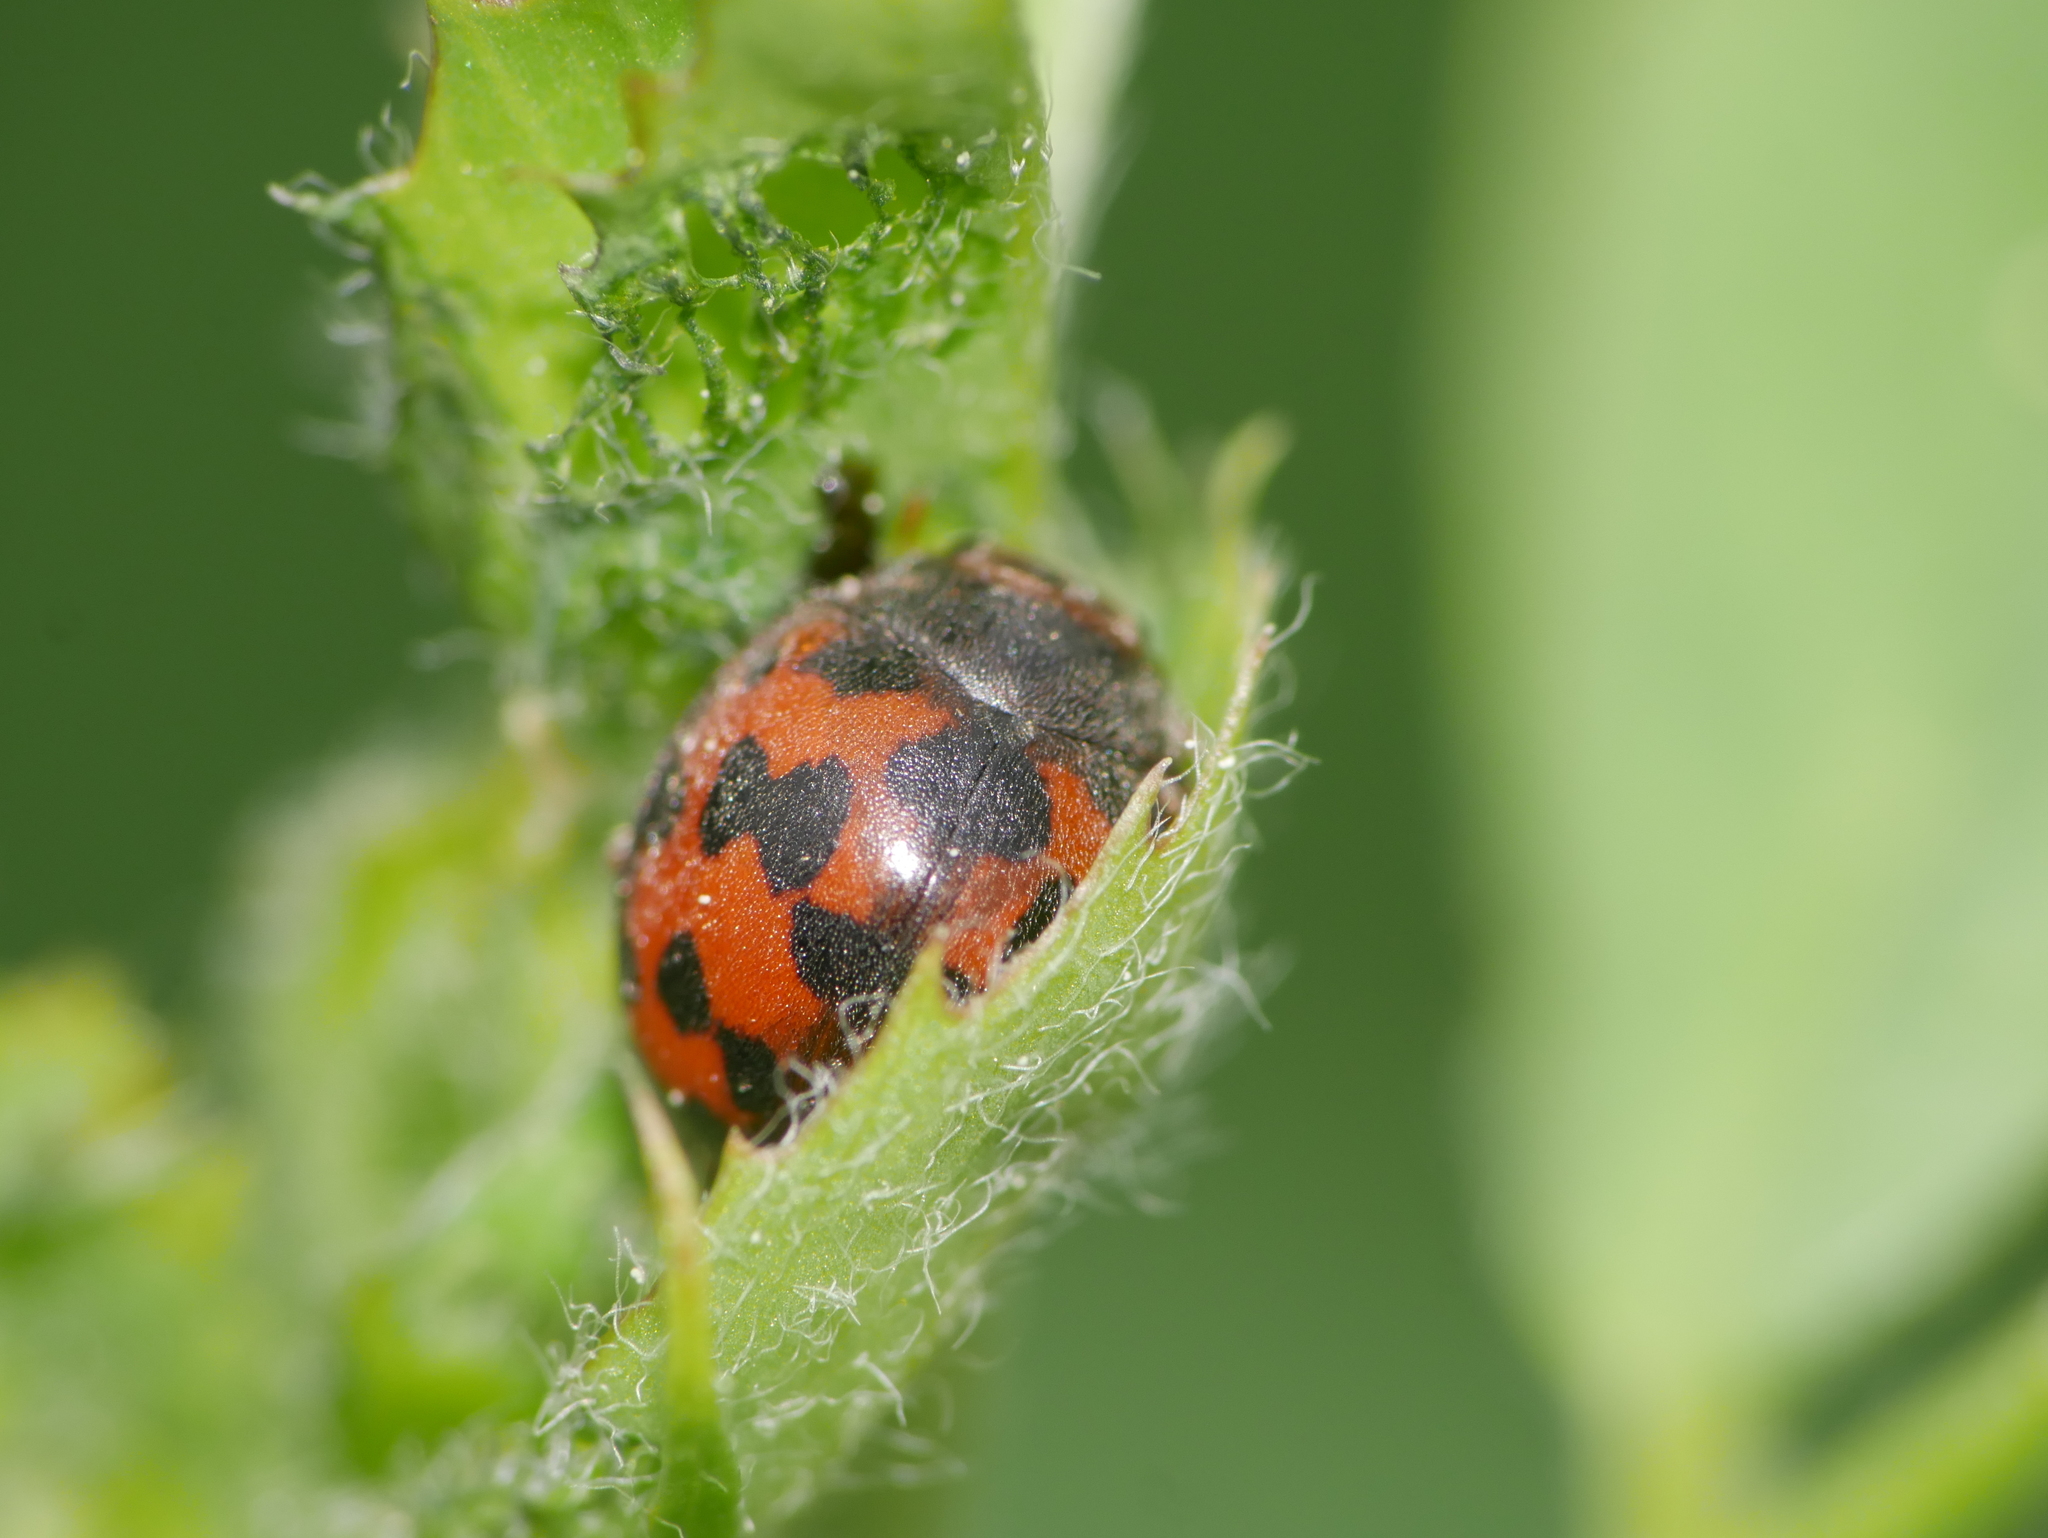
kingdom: Animalia
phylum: Arthropoda
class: Insecta
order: Coleoptera
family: Coccinellidae
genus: Subcoccinella
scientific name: Subcoccinella vigintiquatuorpunctata
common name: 24-spot ladybird
